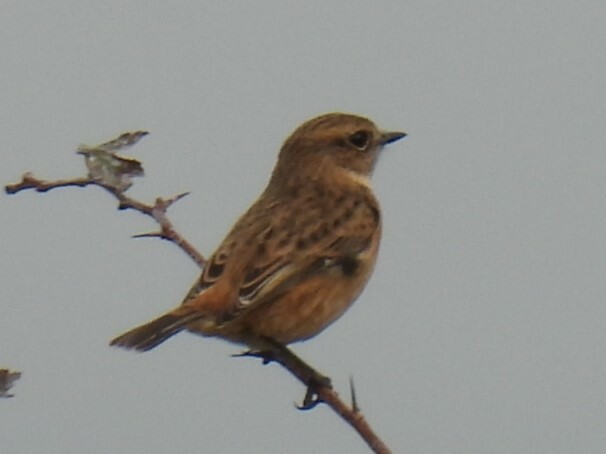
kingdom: Animalia
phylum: Chordata
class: Aves
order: Passeriformes
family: Muscicapidae
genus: Saxicola
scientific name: Saxicola rubicola
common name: European stonechat
